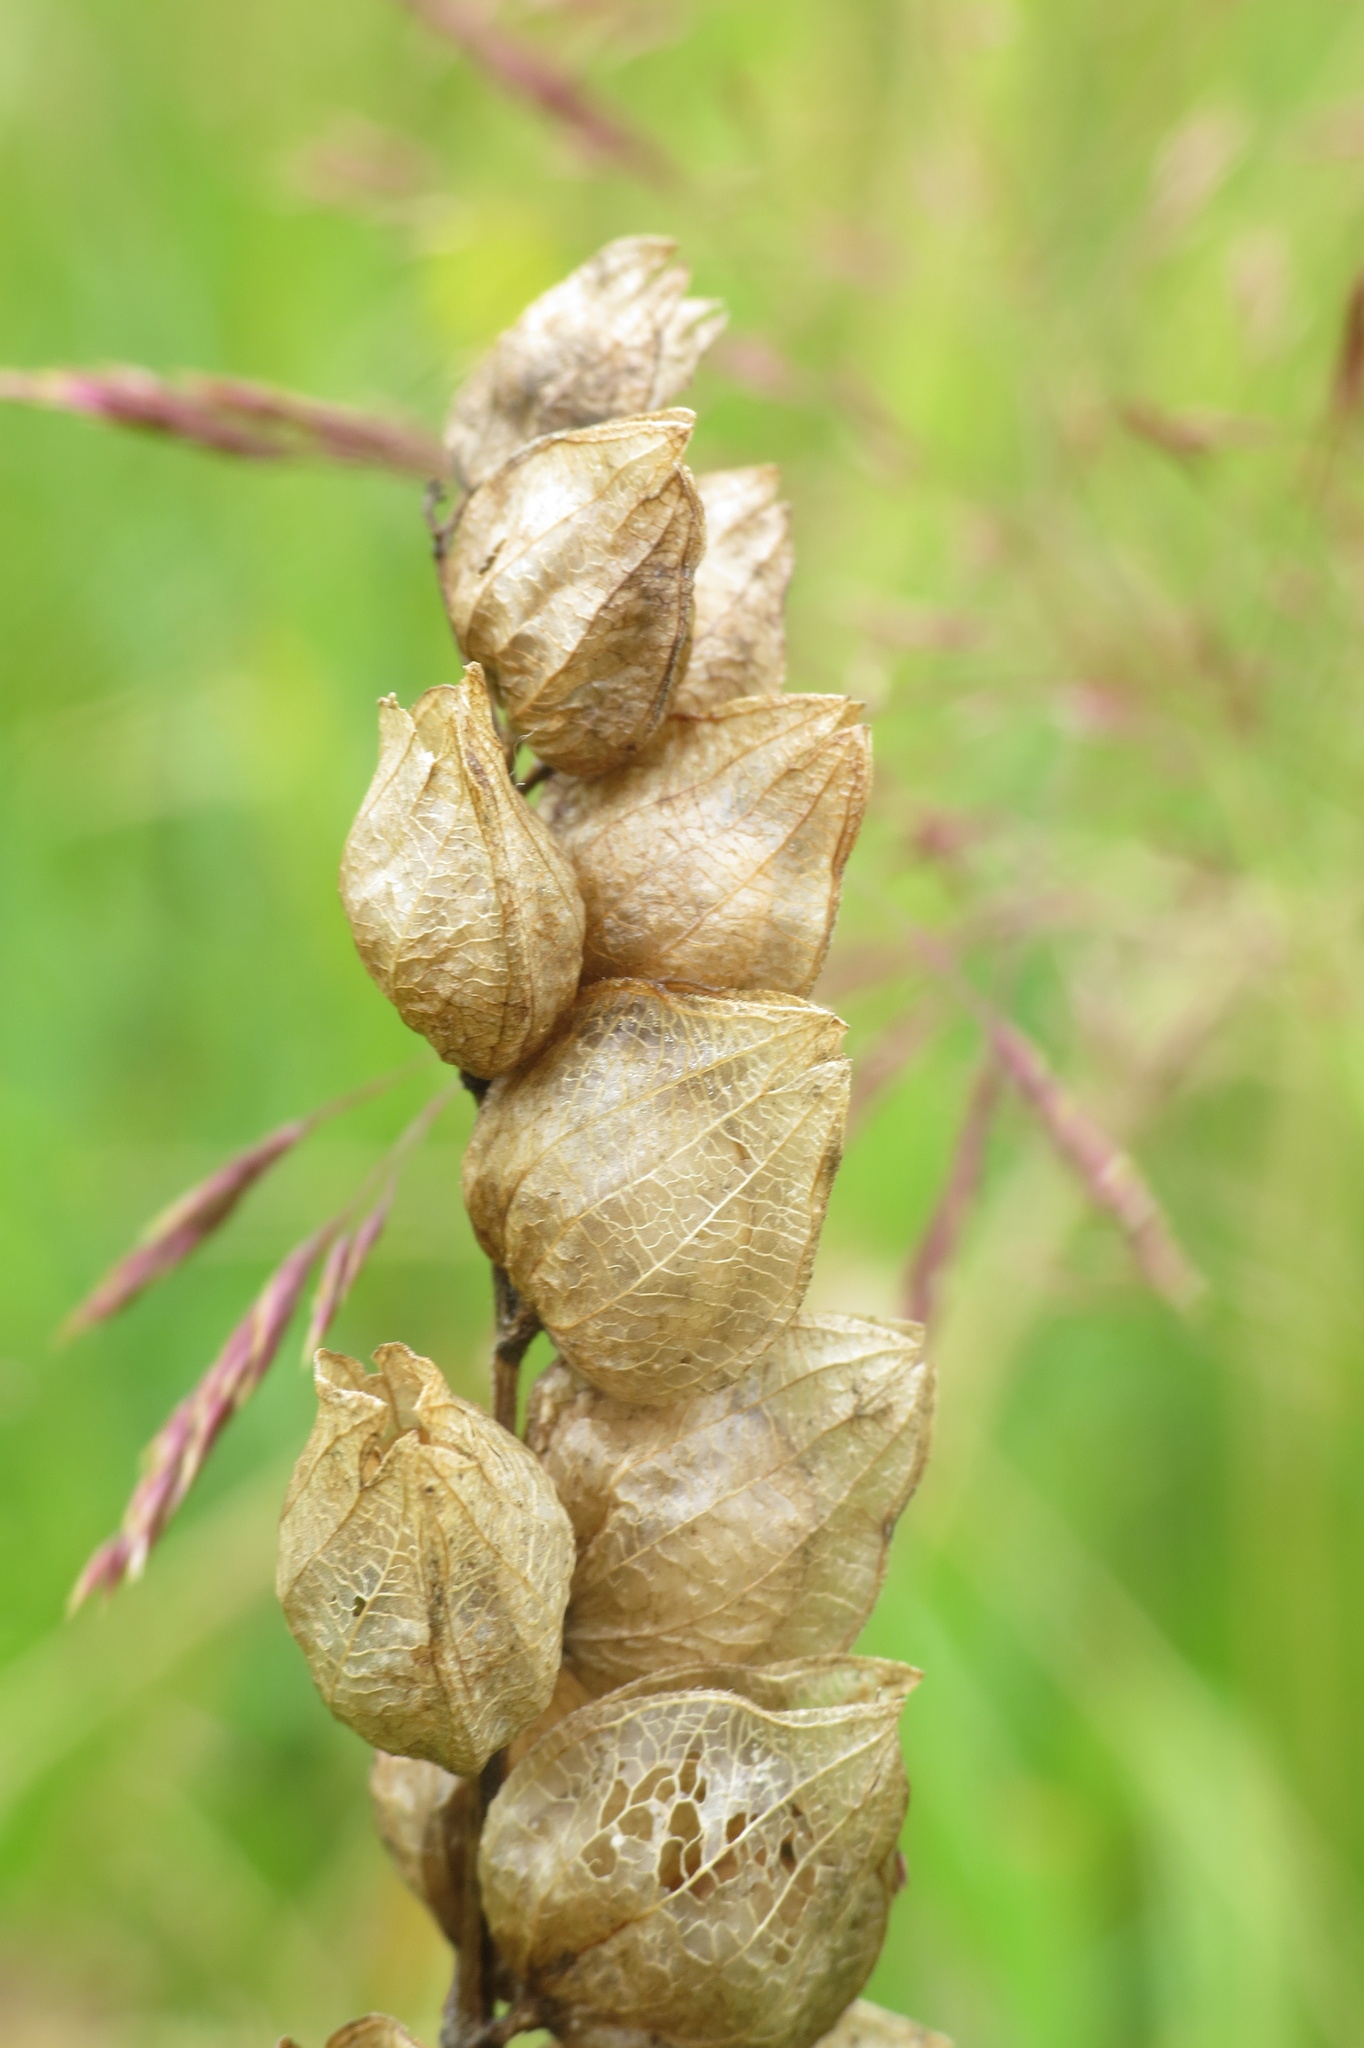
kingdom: Plantae
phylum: Tracheophyta
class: Magnoliopsida
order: Lamiales
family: Orobanchaceae
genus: Rhinanthus
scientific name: Rhinanthus minor
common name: Yellow-rattle
